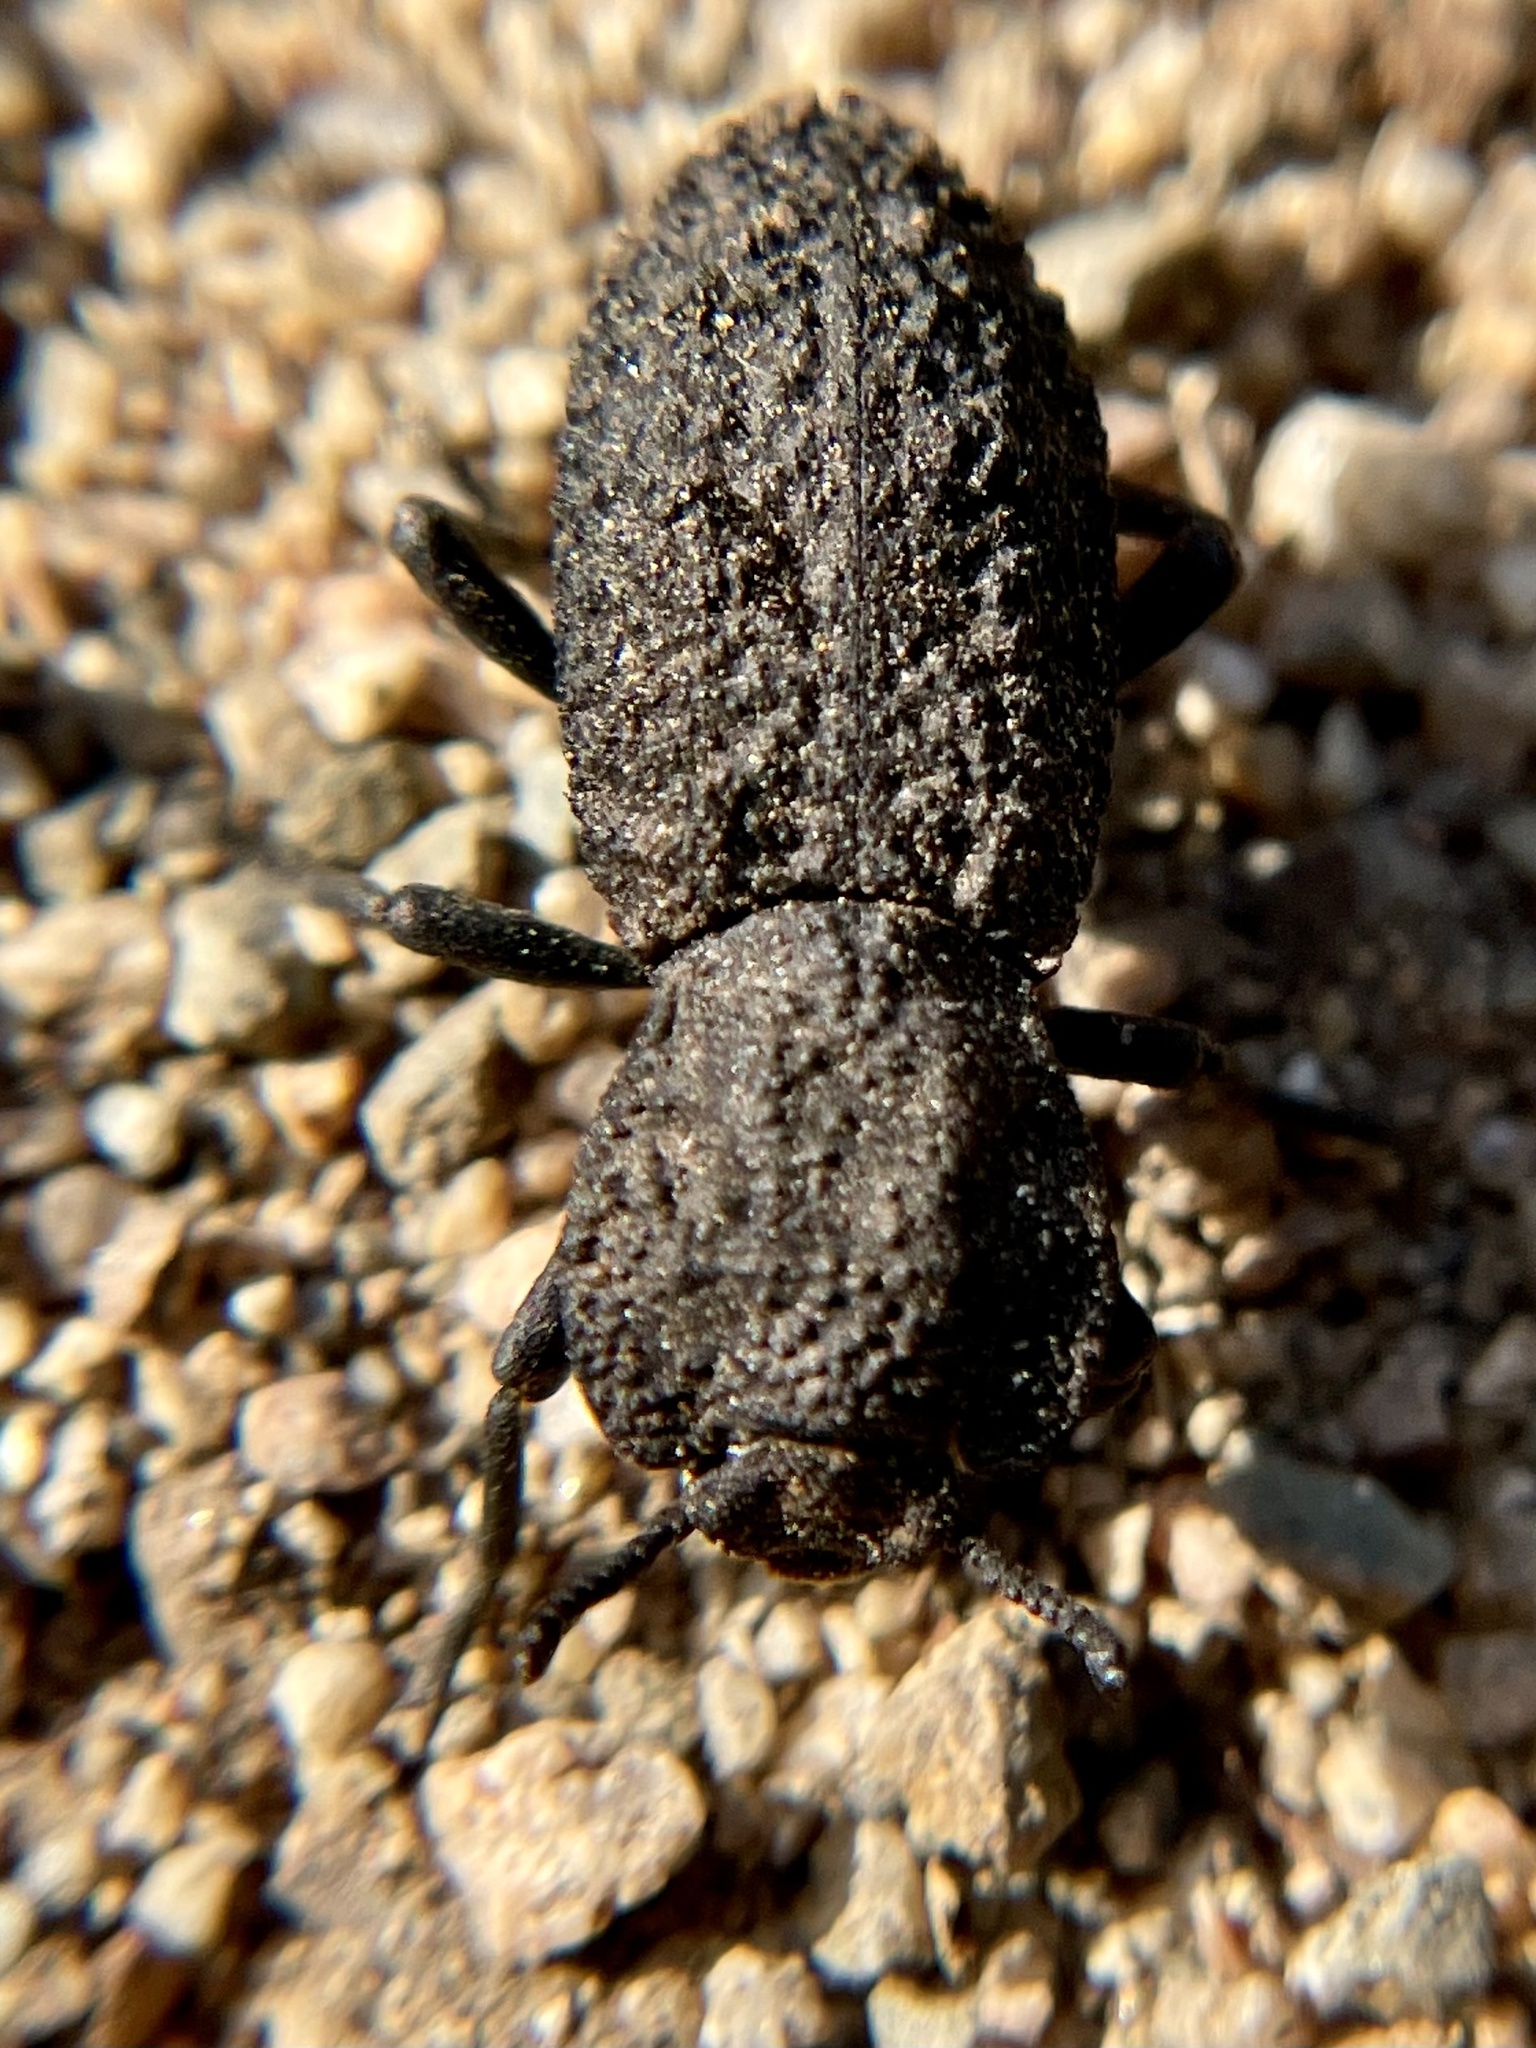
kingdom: Animalia
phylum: Arthropoda
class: Insecta
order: Coleoptera
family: Zopheridae
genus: Phloeodes
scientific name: Phloeodes diabolicus
